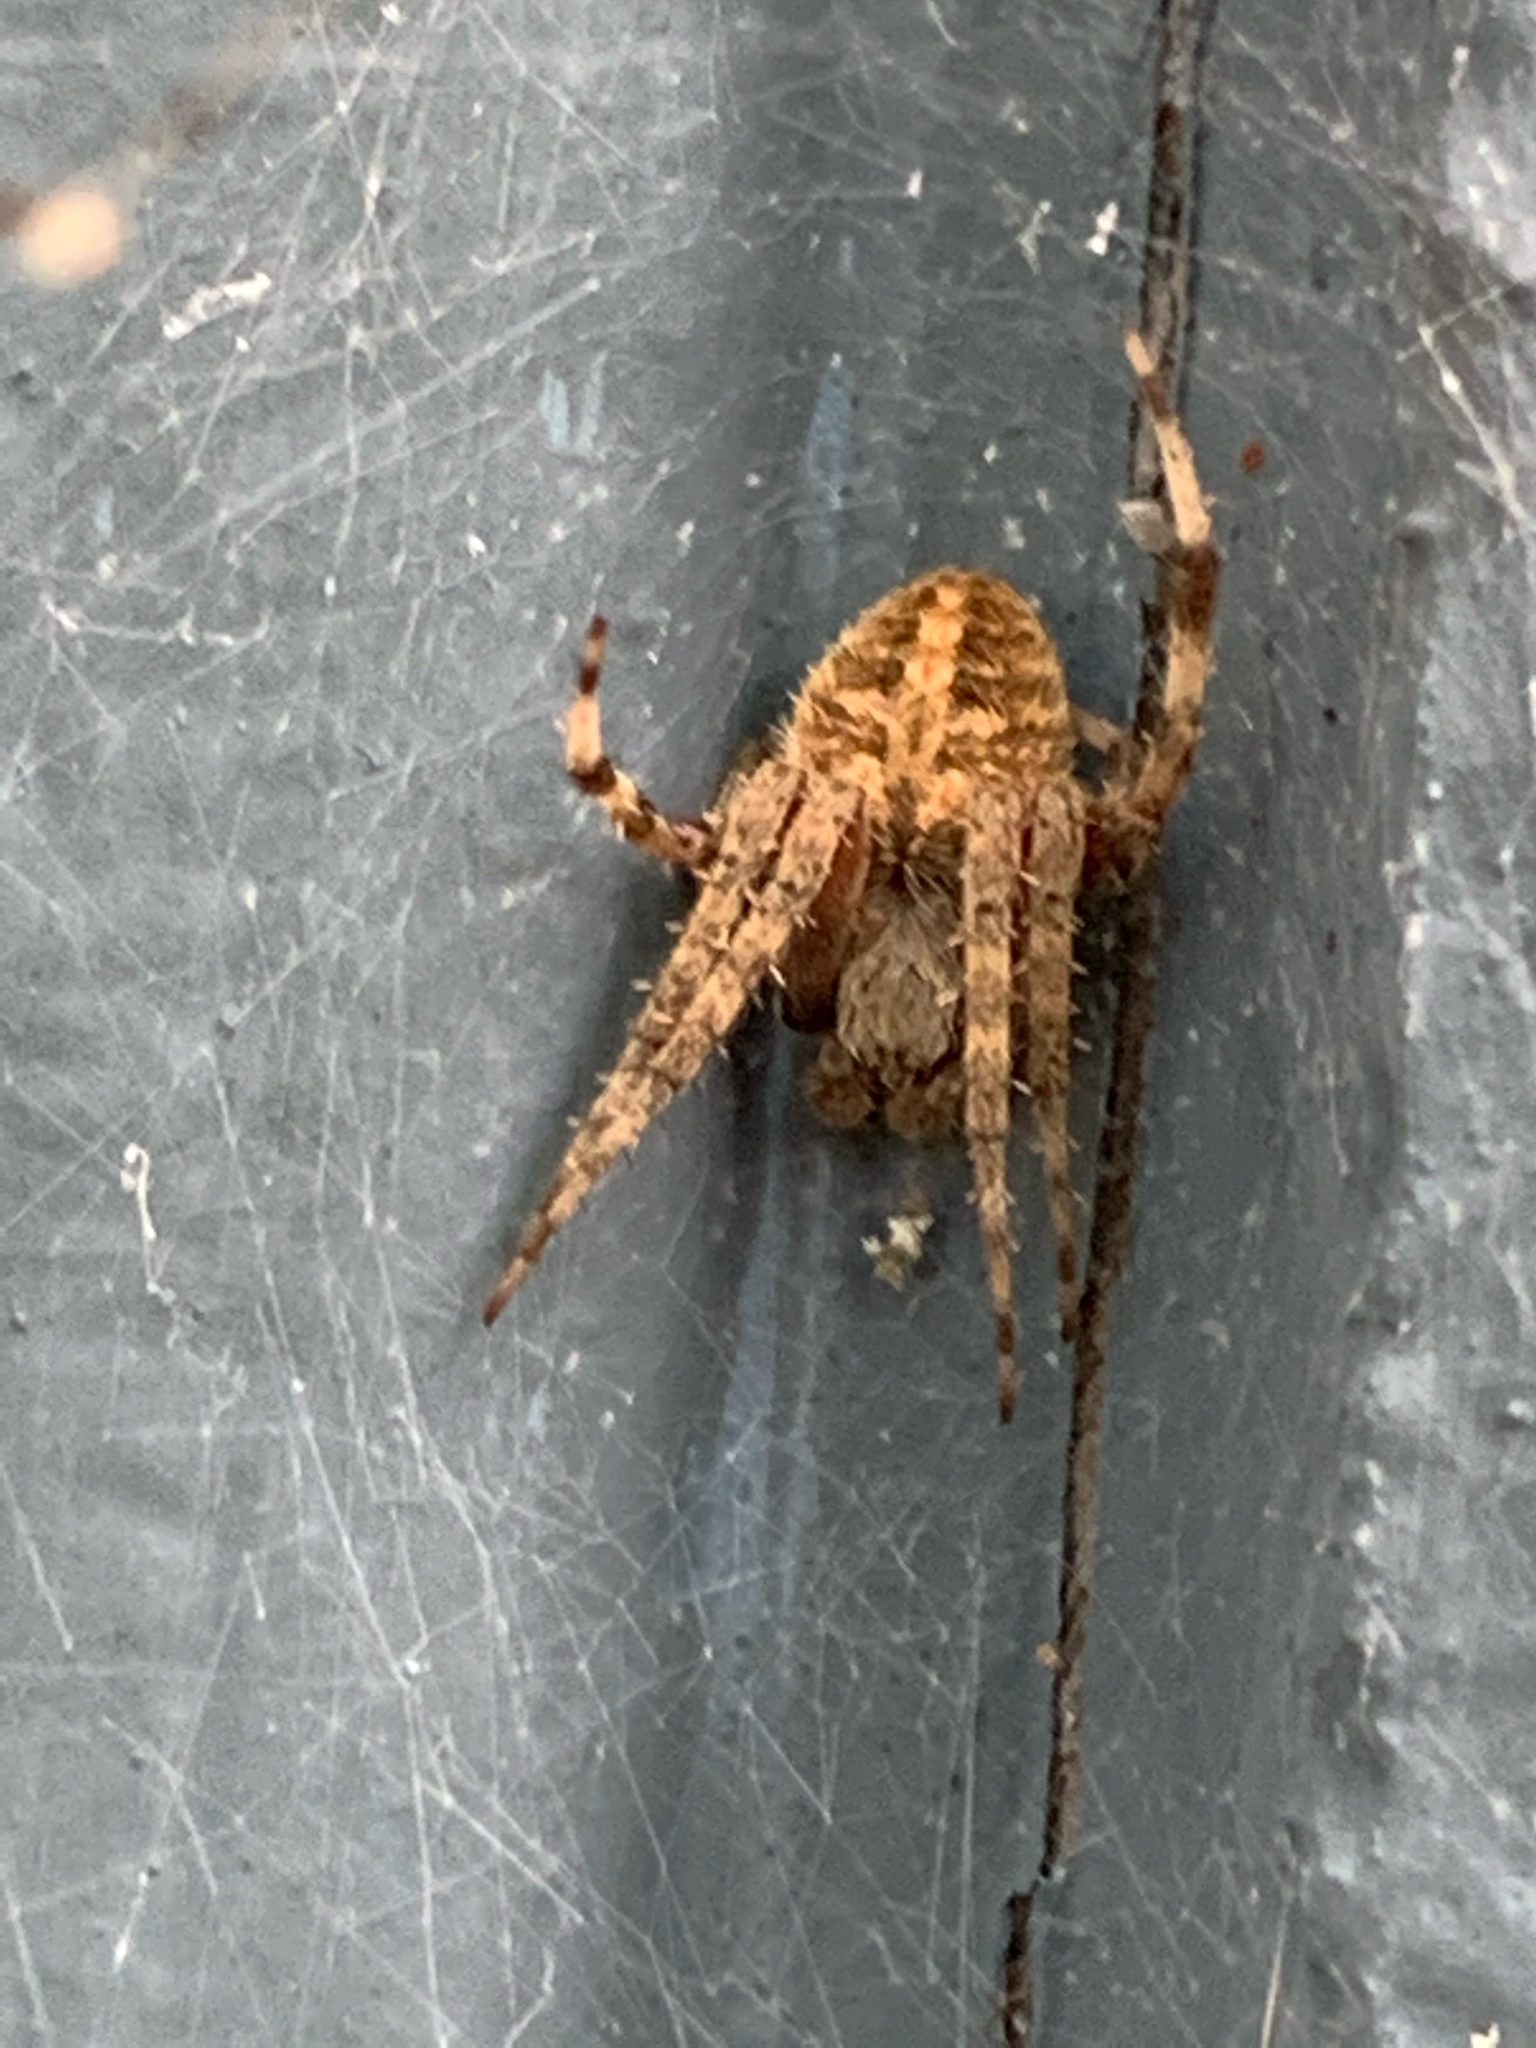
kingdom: Animalia
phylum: Arthropoda
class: Arachnida
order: Araneae
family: Araneidae
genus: Neoscona
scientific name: Neoscona crucifera
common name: Spotted orbweaver
